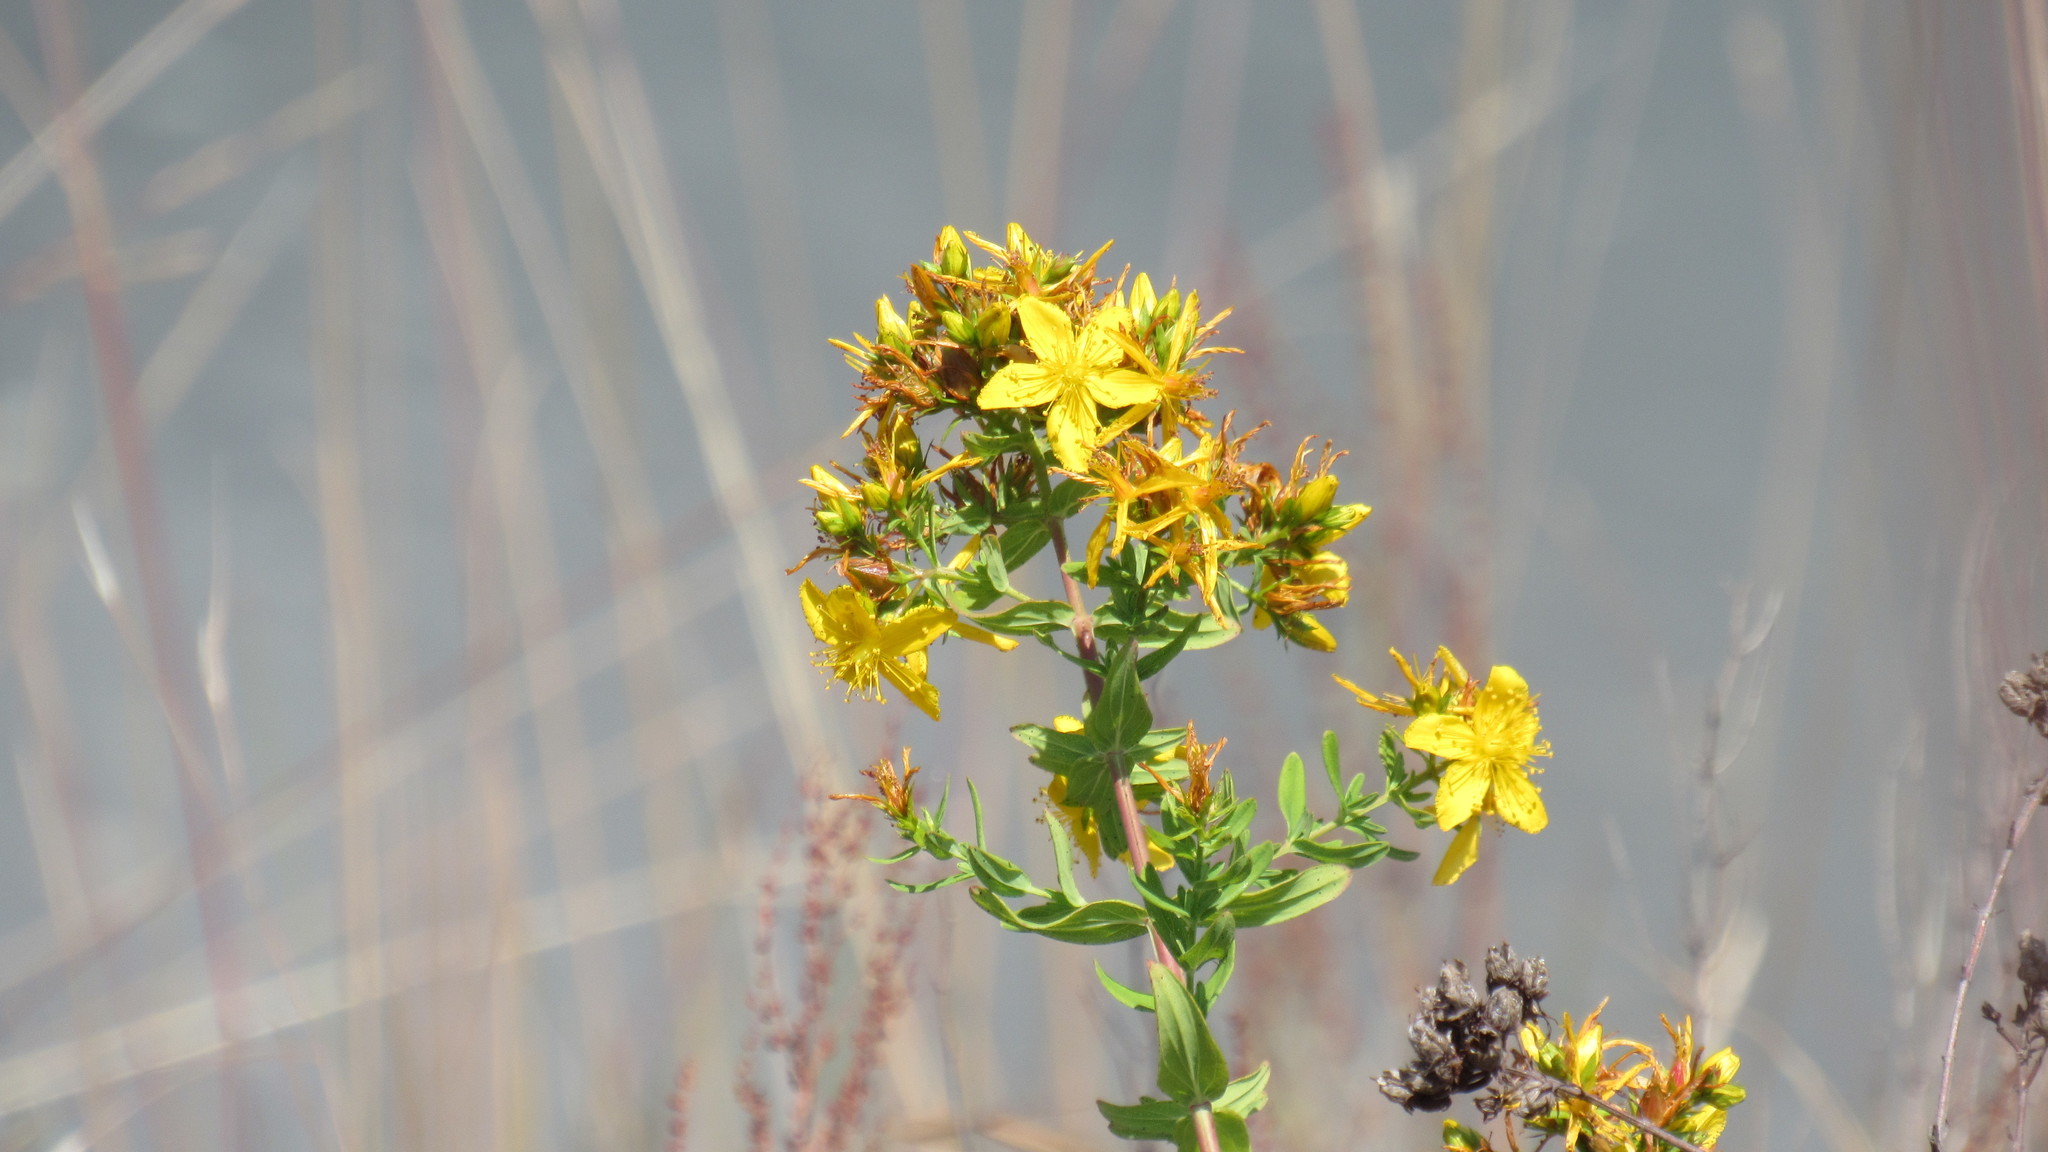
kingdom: Plantae
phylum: Tracheophyta
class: Magnoliopsida
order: Malpighiales
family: Hypericaceae
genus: Hypericum
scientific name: Hypericum perforatum
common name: Common st. johnswort
